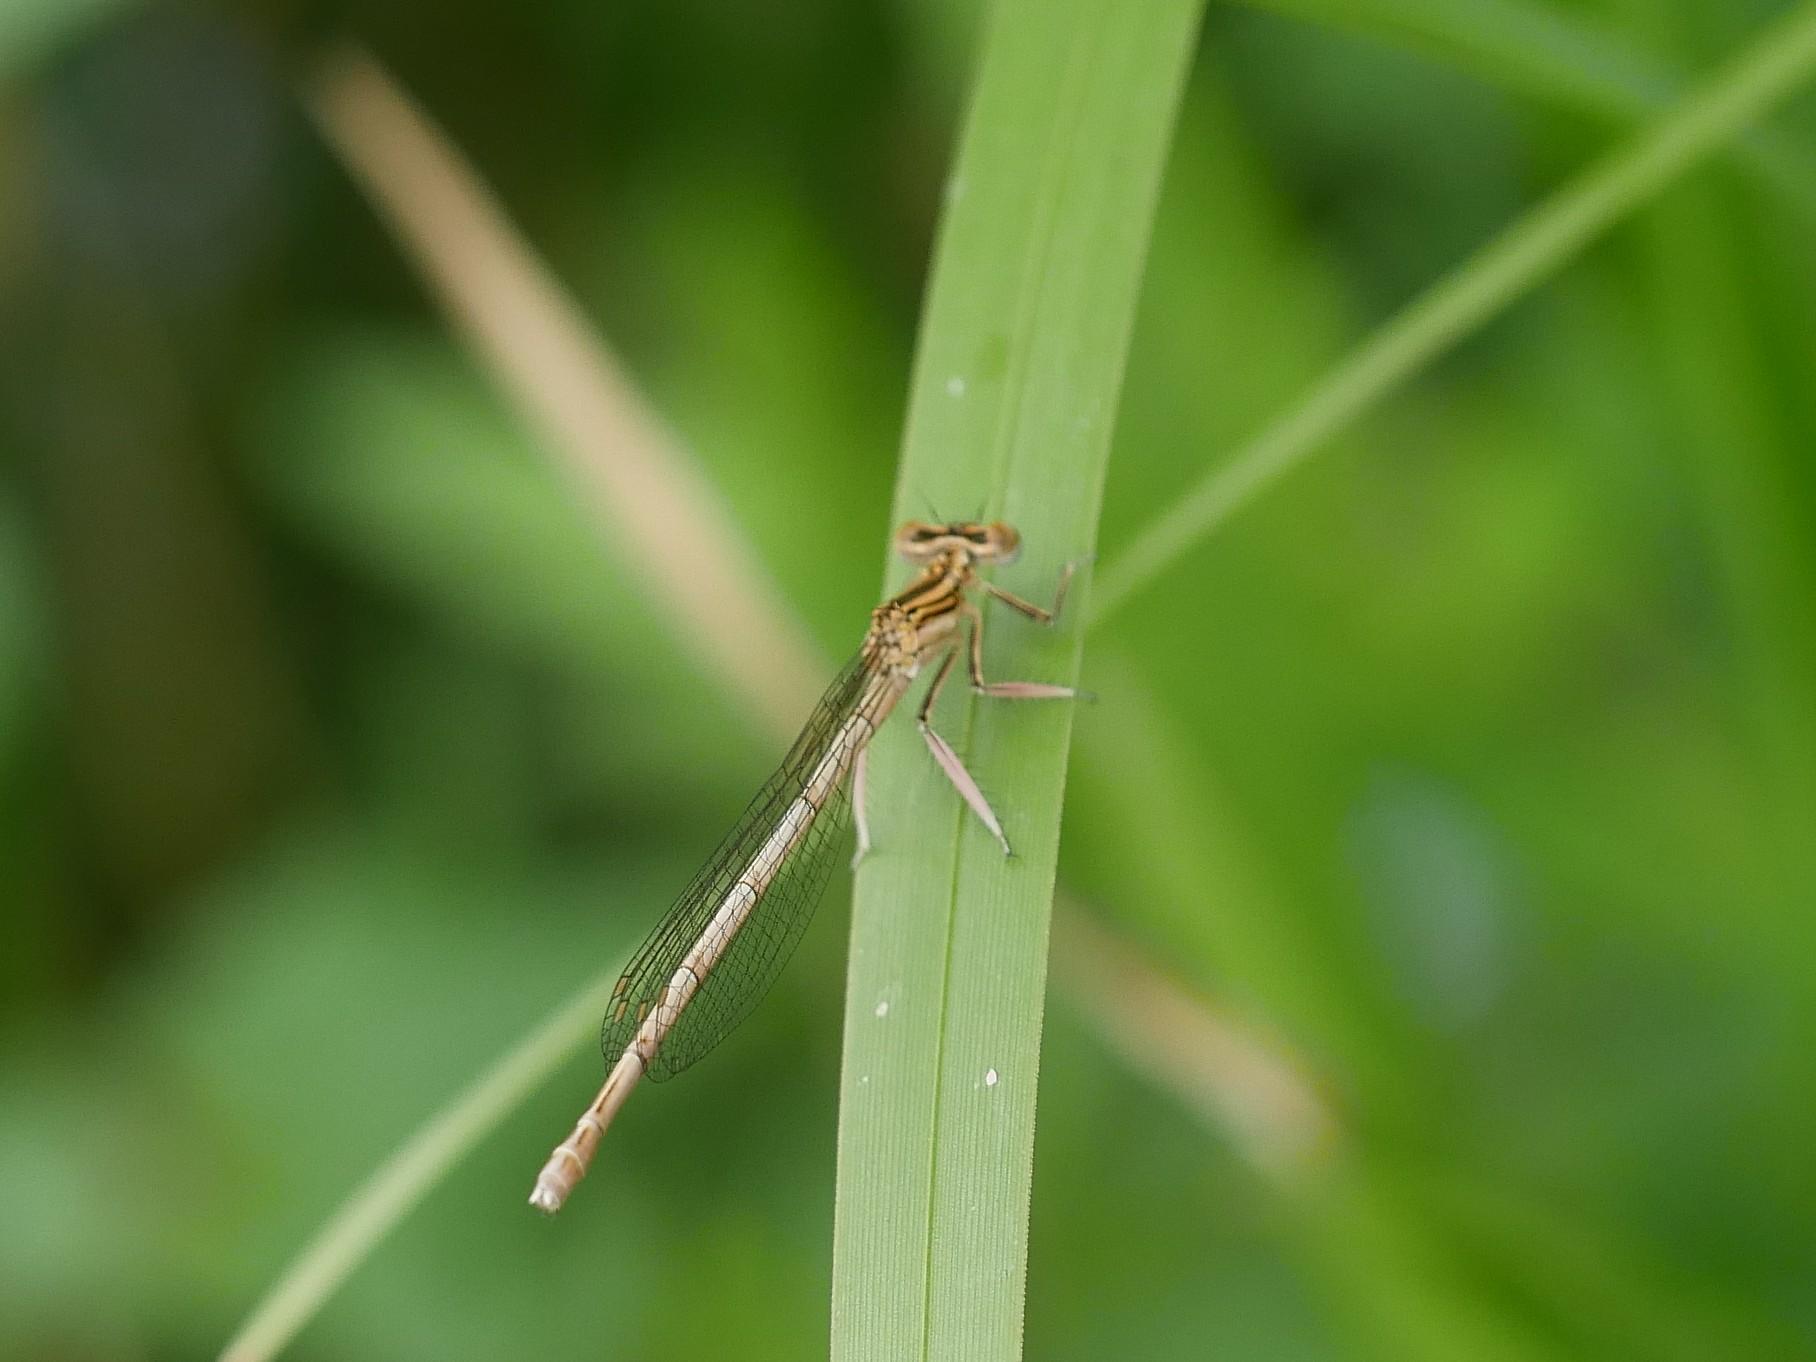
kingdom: Animalia
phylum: Arthropoda
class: Insecta
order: Odonata
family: Platycnemididae
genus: Platycnemis
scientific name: Platycnemis pennipes
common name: White-legged damselfly
